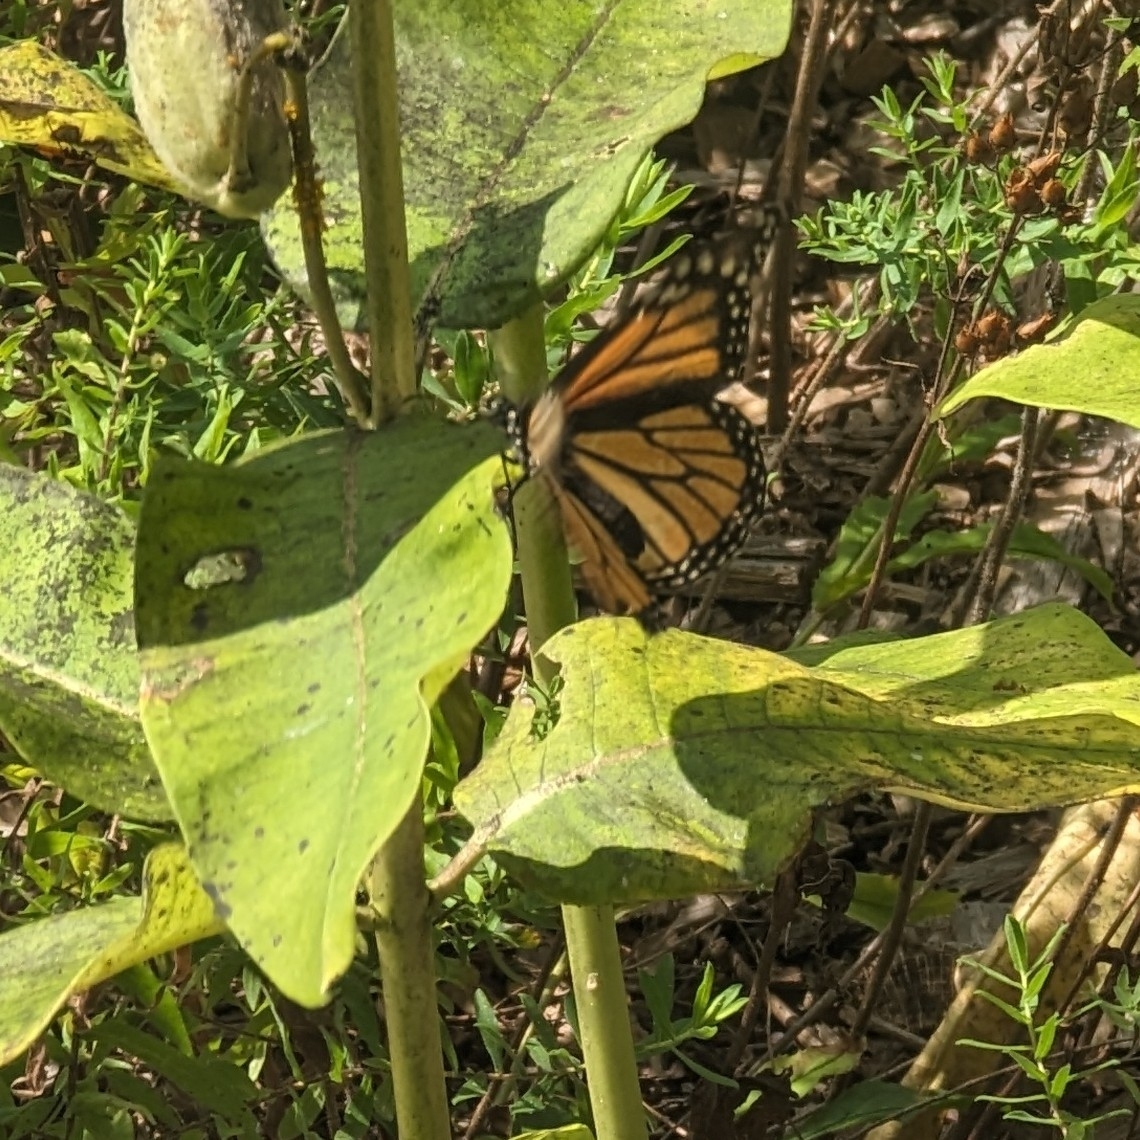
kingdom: Animalia
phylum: Arthropoda
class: Insecta
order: Lepidoptera
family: Nymphalidae
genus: Danaus
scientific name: Danaus plexippus
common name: Monarch
